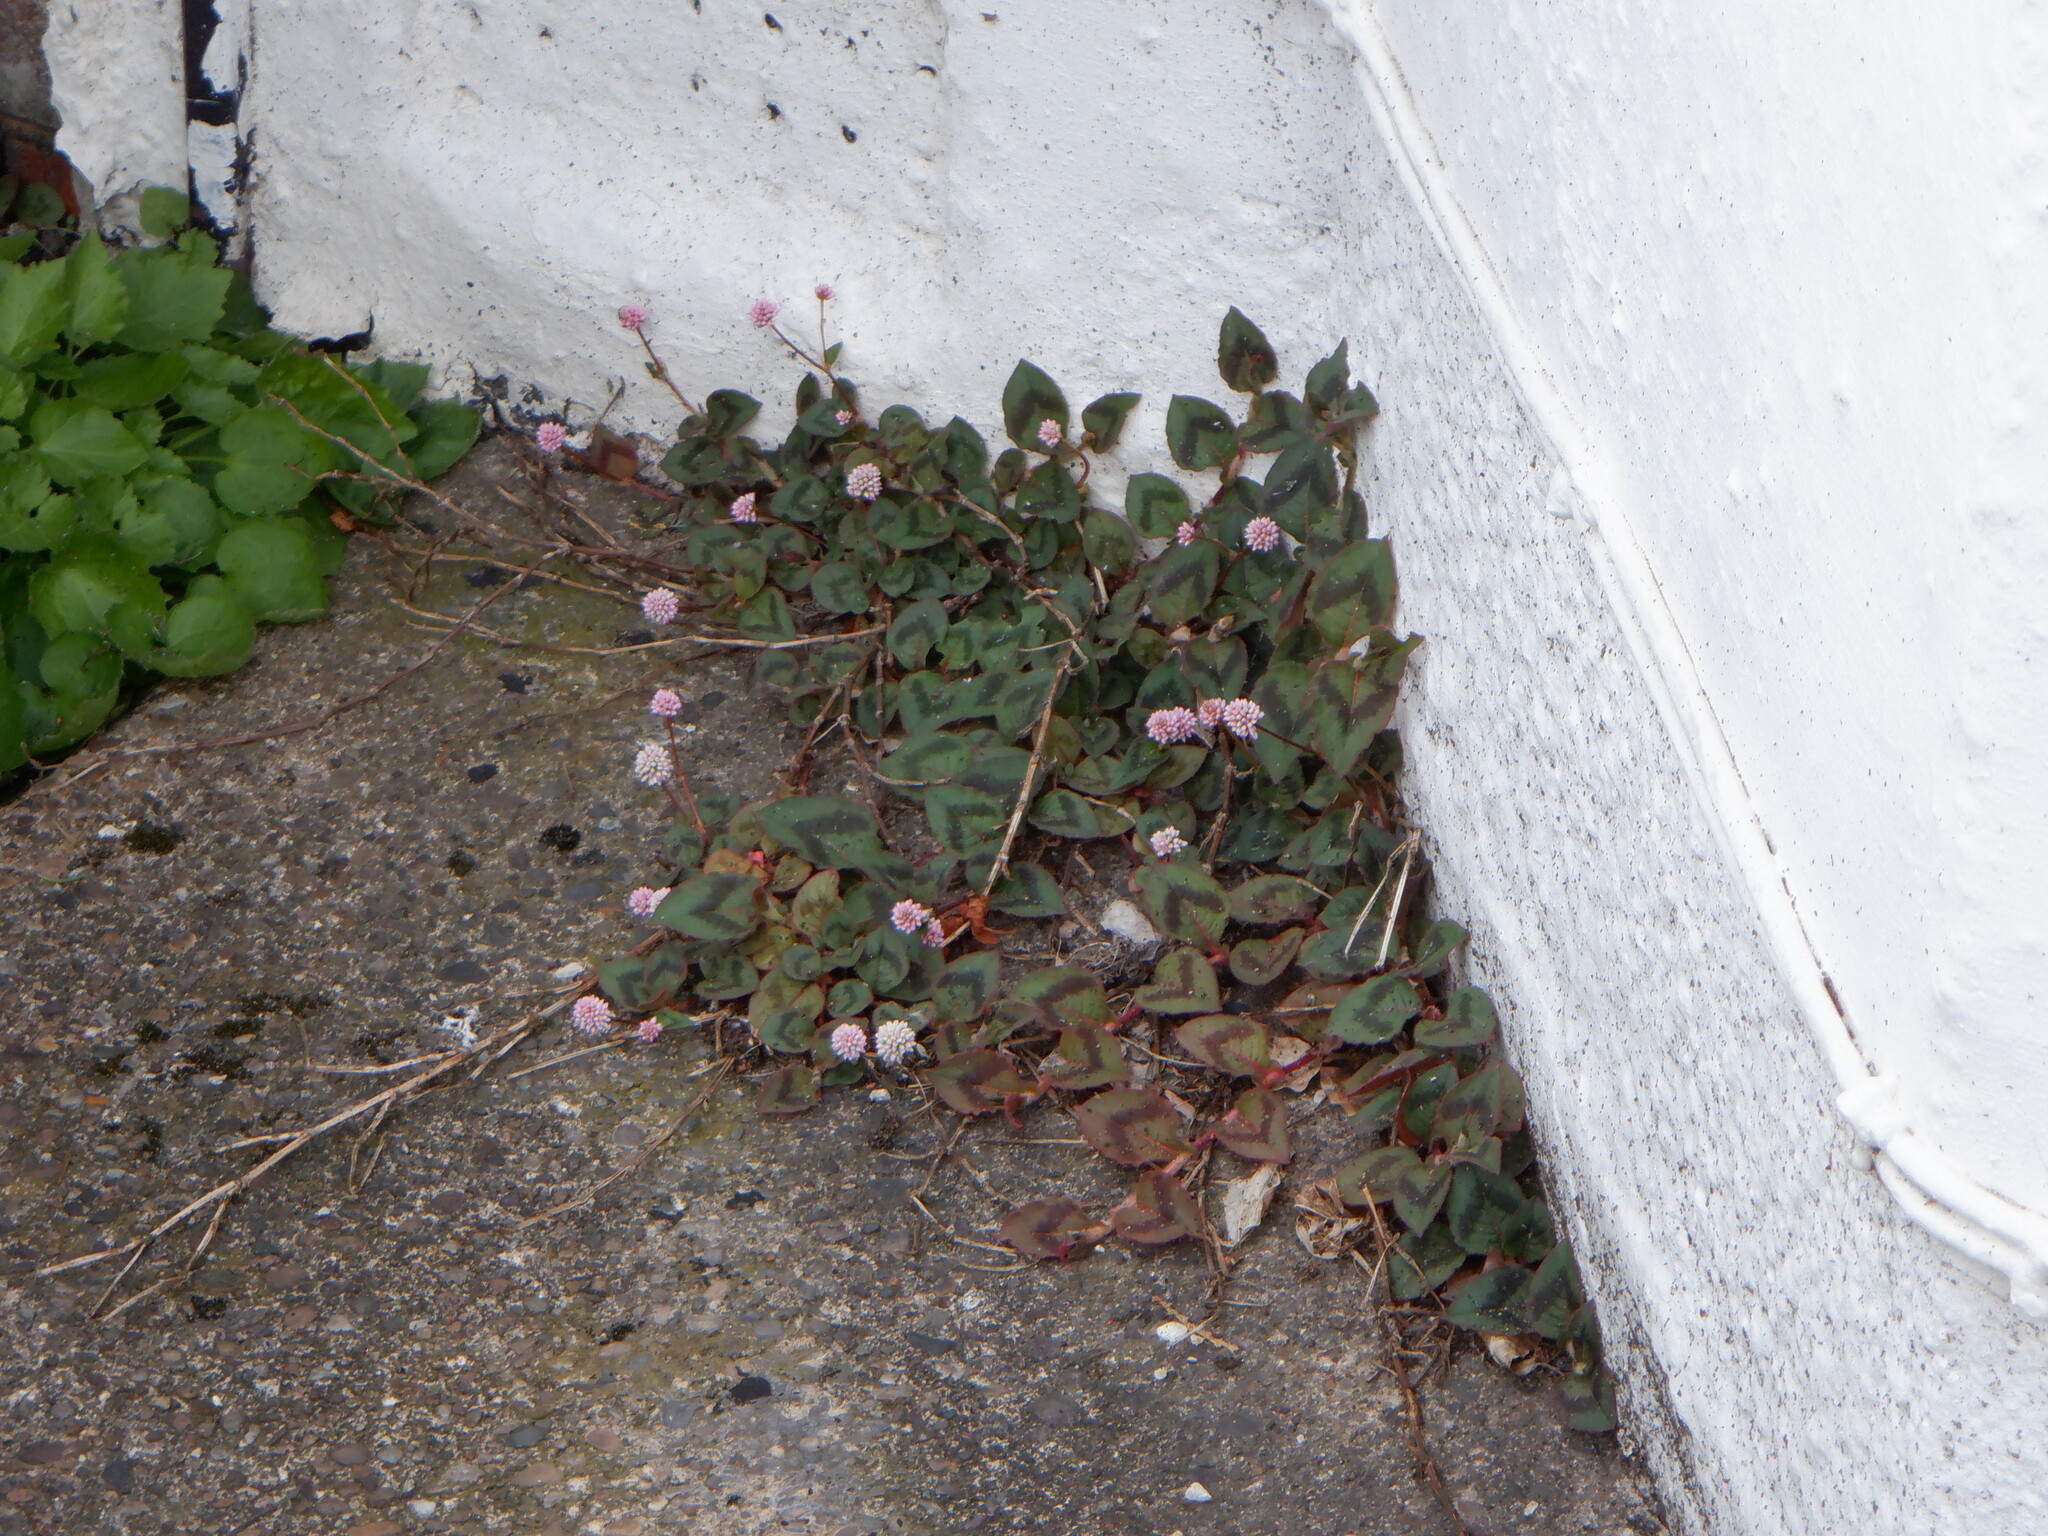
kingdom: Plantae
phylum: Tracheophyta
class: Magnoliopsida
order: Caryophyllales
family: Polygonaceae
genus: Persicaria
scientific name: Persicaria capitata
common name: Pinkhead smartweed
